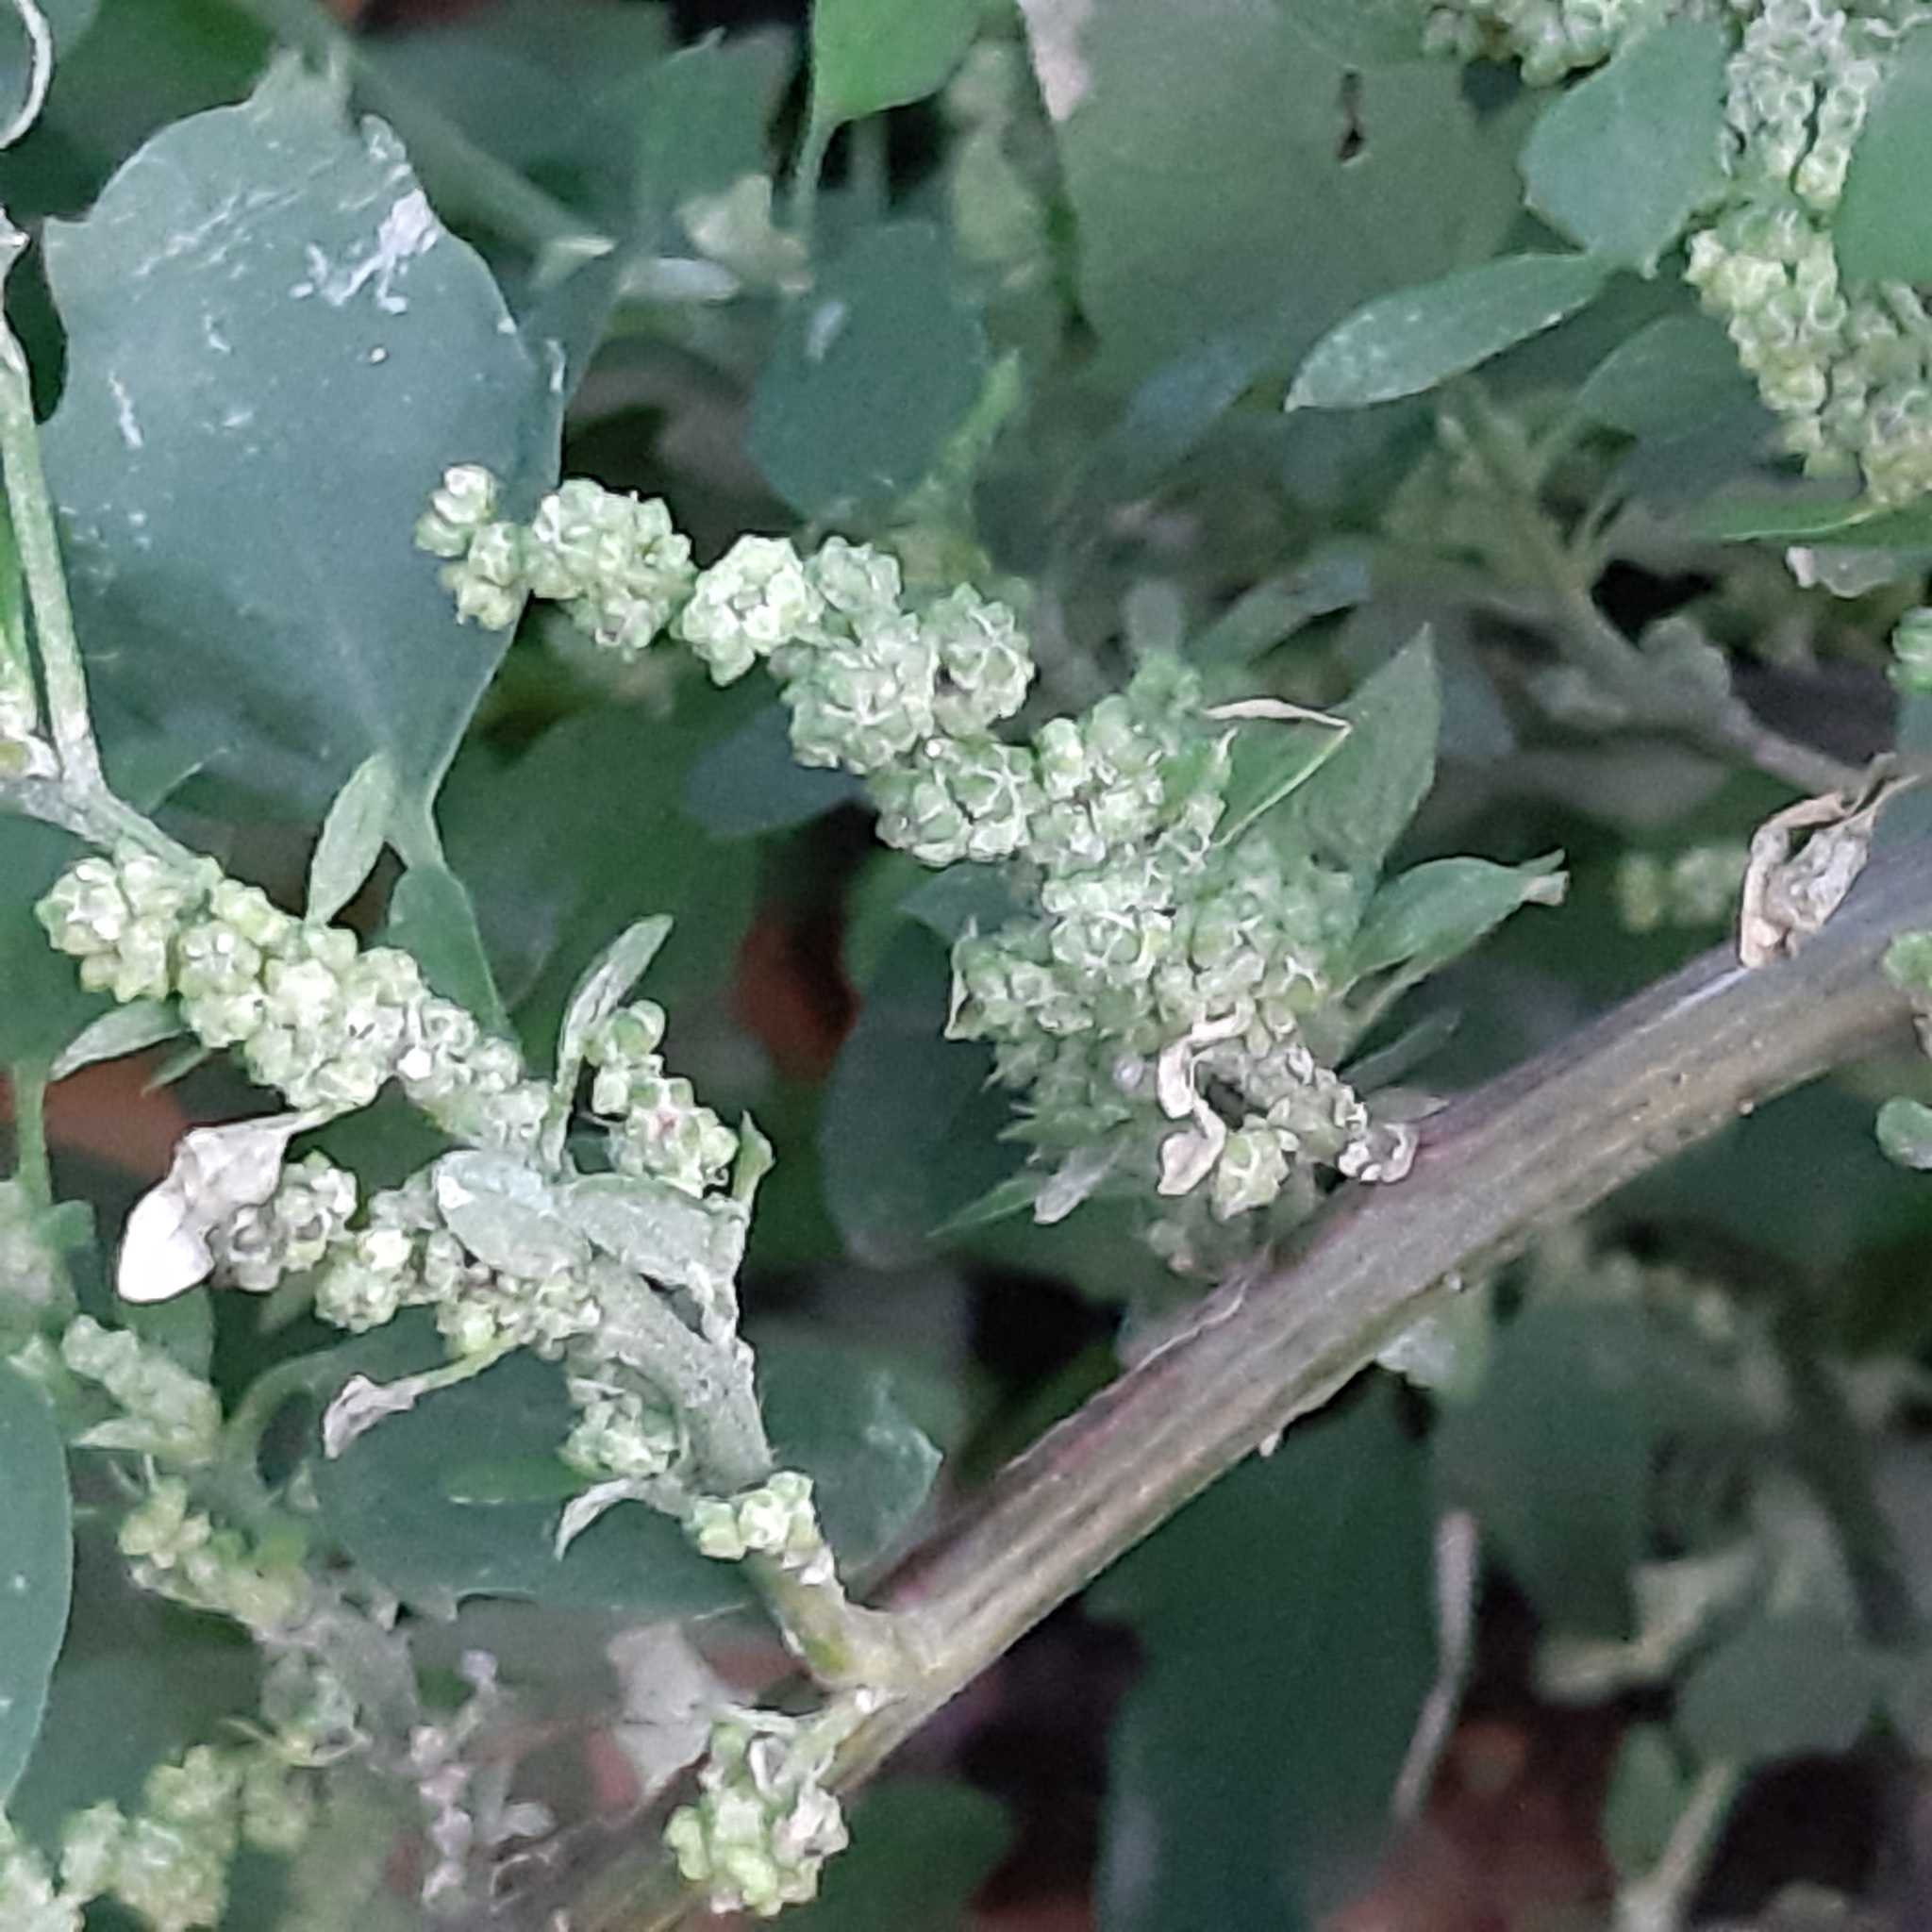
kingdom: Plantae
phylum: Tracheophyta
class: Magnoliopsida
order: Caryophyllales
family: Amaranthaceae
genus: Chenopodium
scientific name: Chenopodium album
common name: Fat-hen
